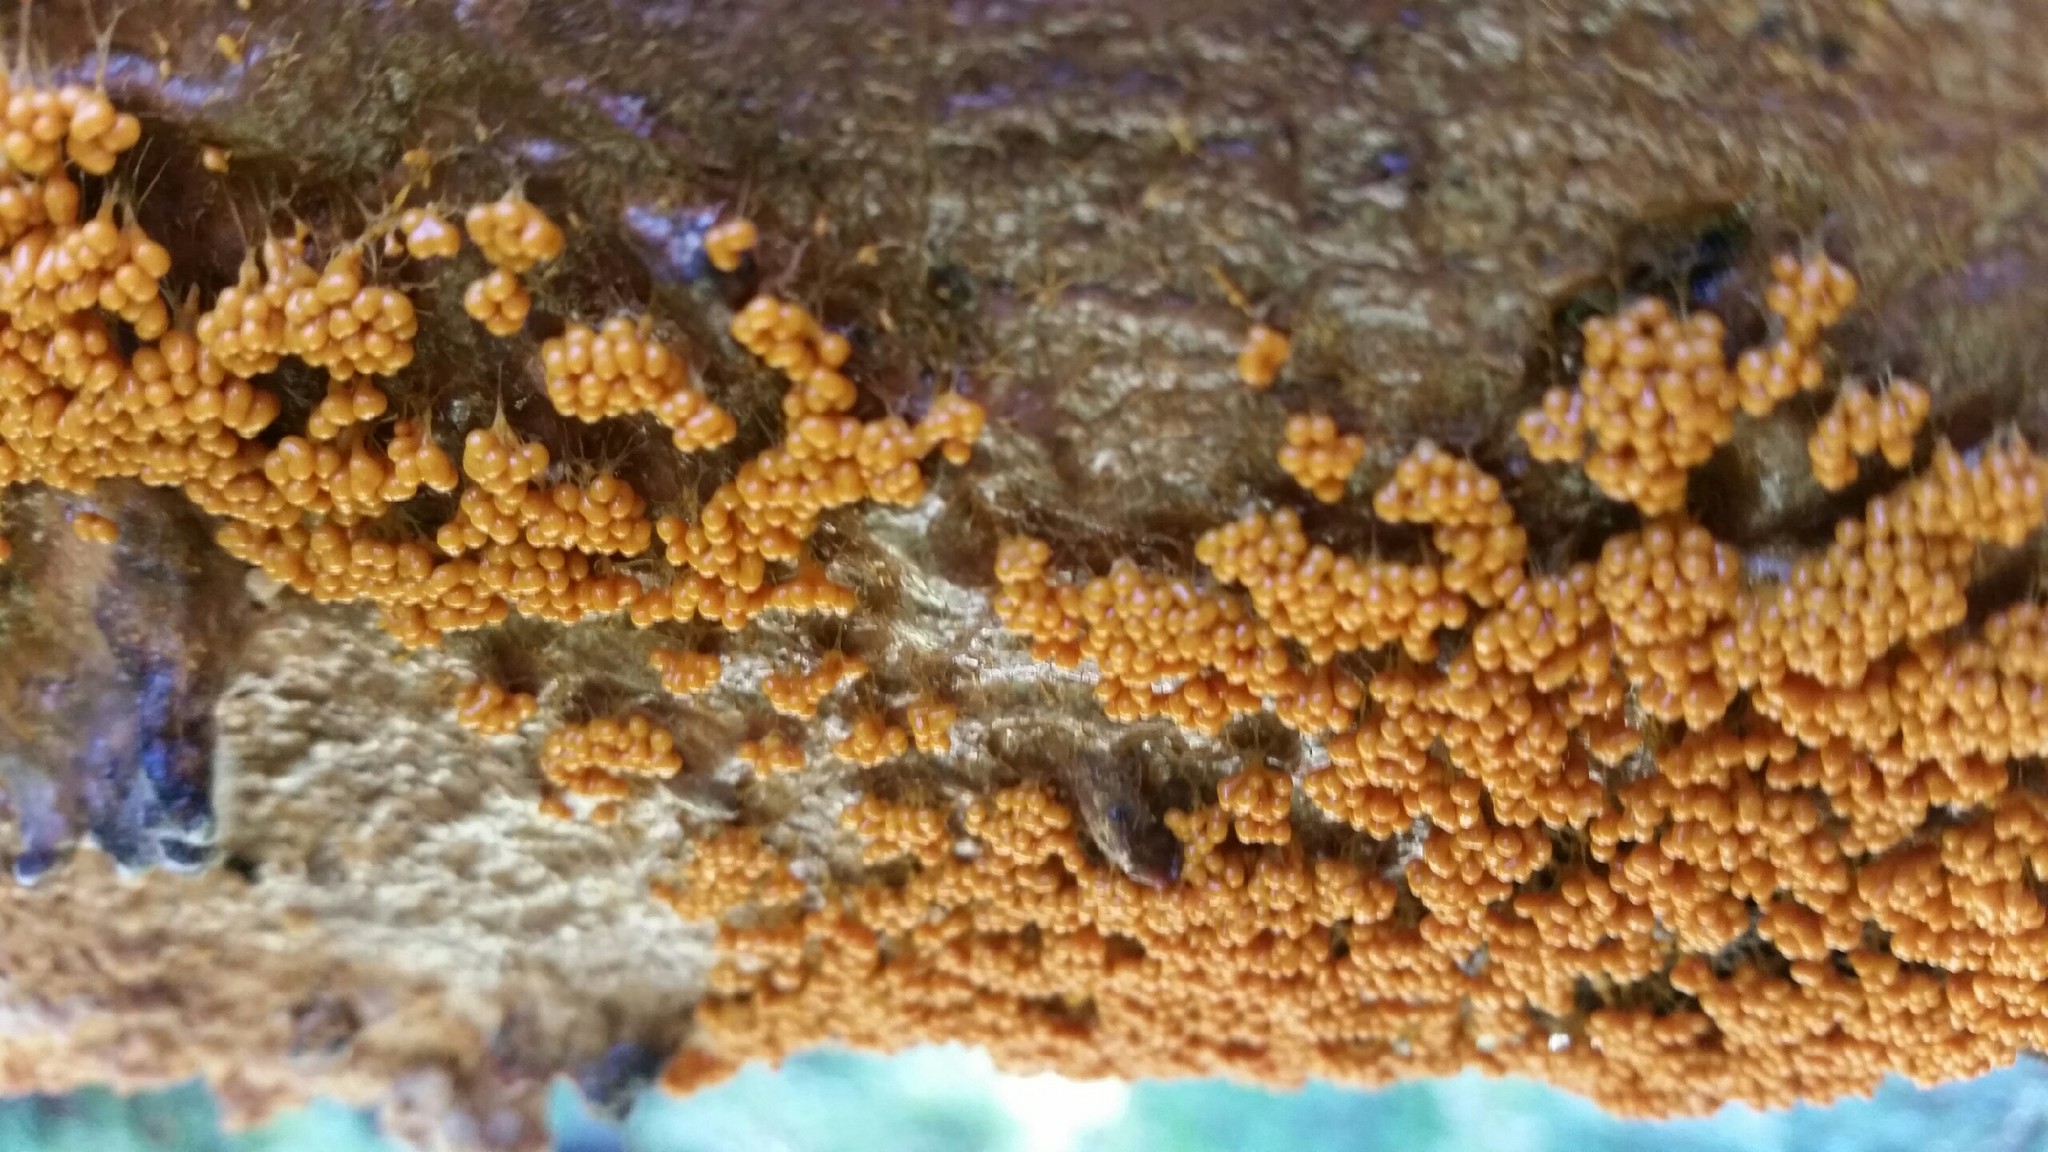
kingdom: Protozoa
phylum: Mycetozoa
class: Myxomycetes
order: Physarales
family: Physaraceae
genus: Leocarpus
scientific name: Leocarpus fragilis
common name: Insect-egg slime
